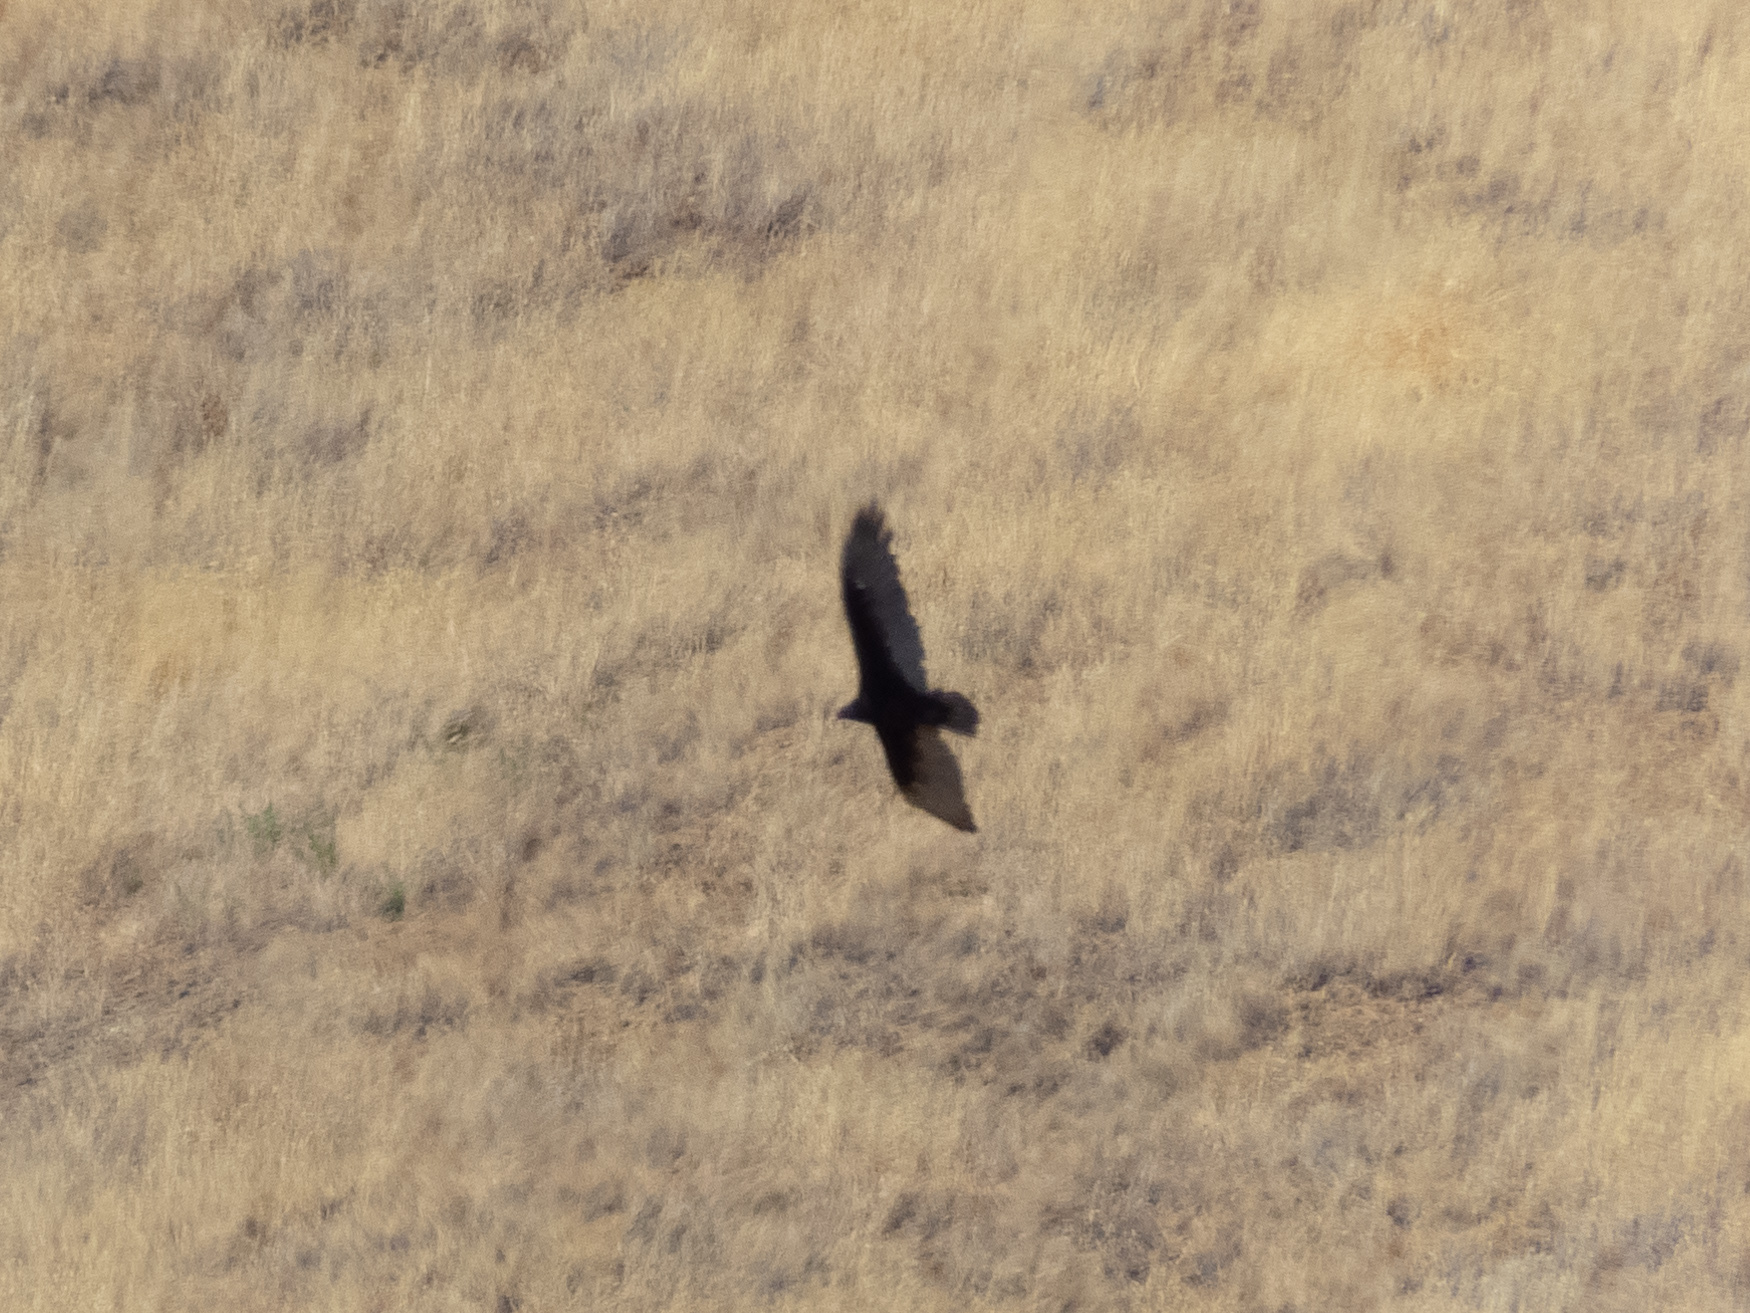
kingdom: Animalia
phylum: Chordata
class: Aves
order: Accipitriformes
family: Cathartidae
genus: Cathartes
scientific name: Cathartes aura
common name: Turkey vulture
